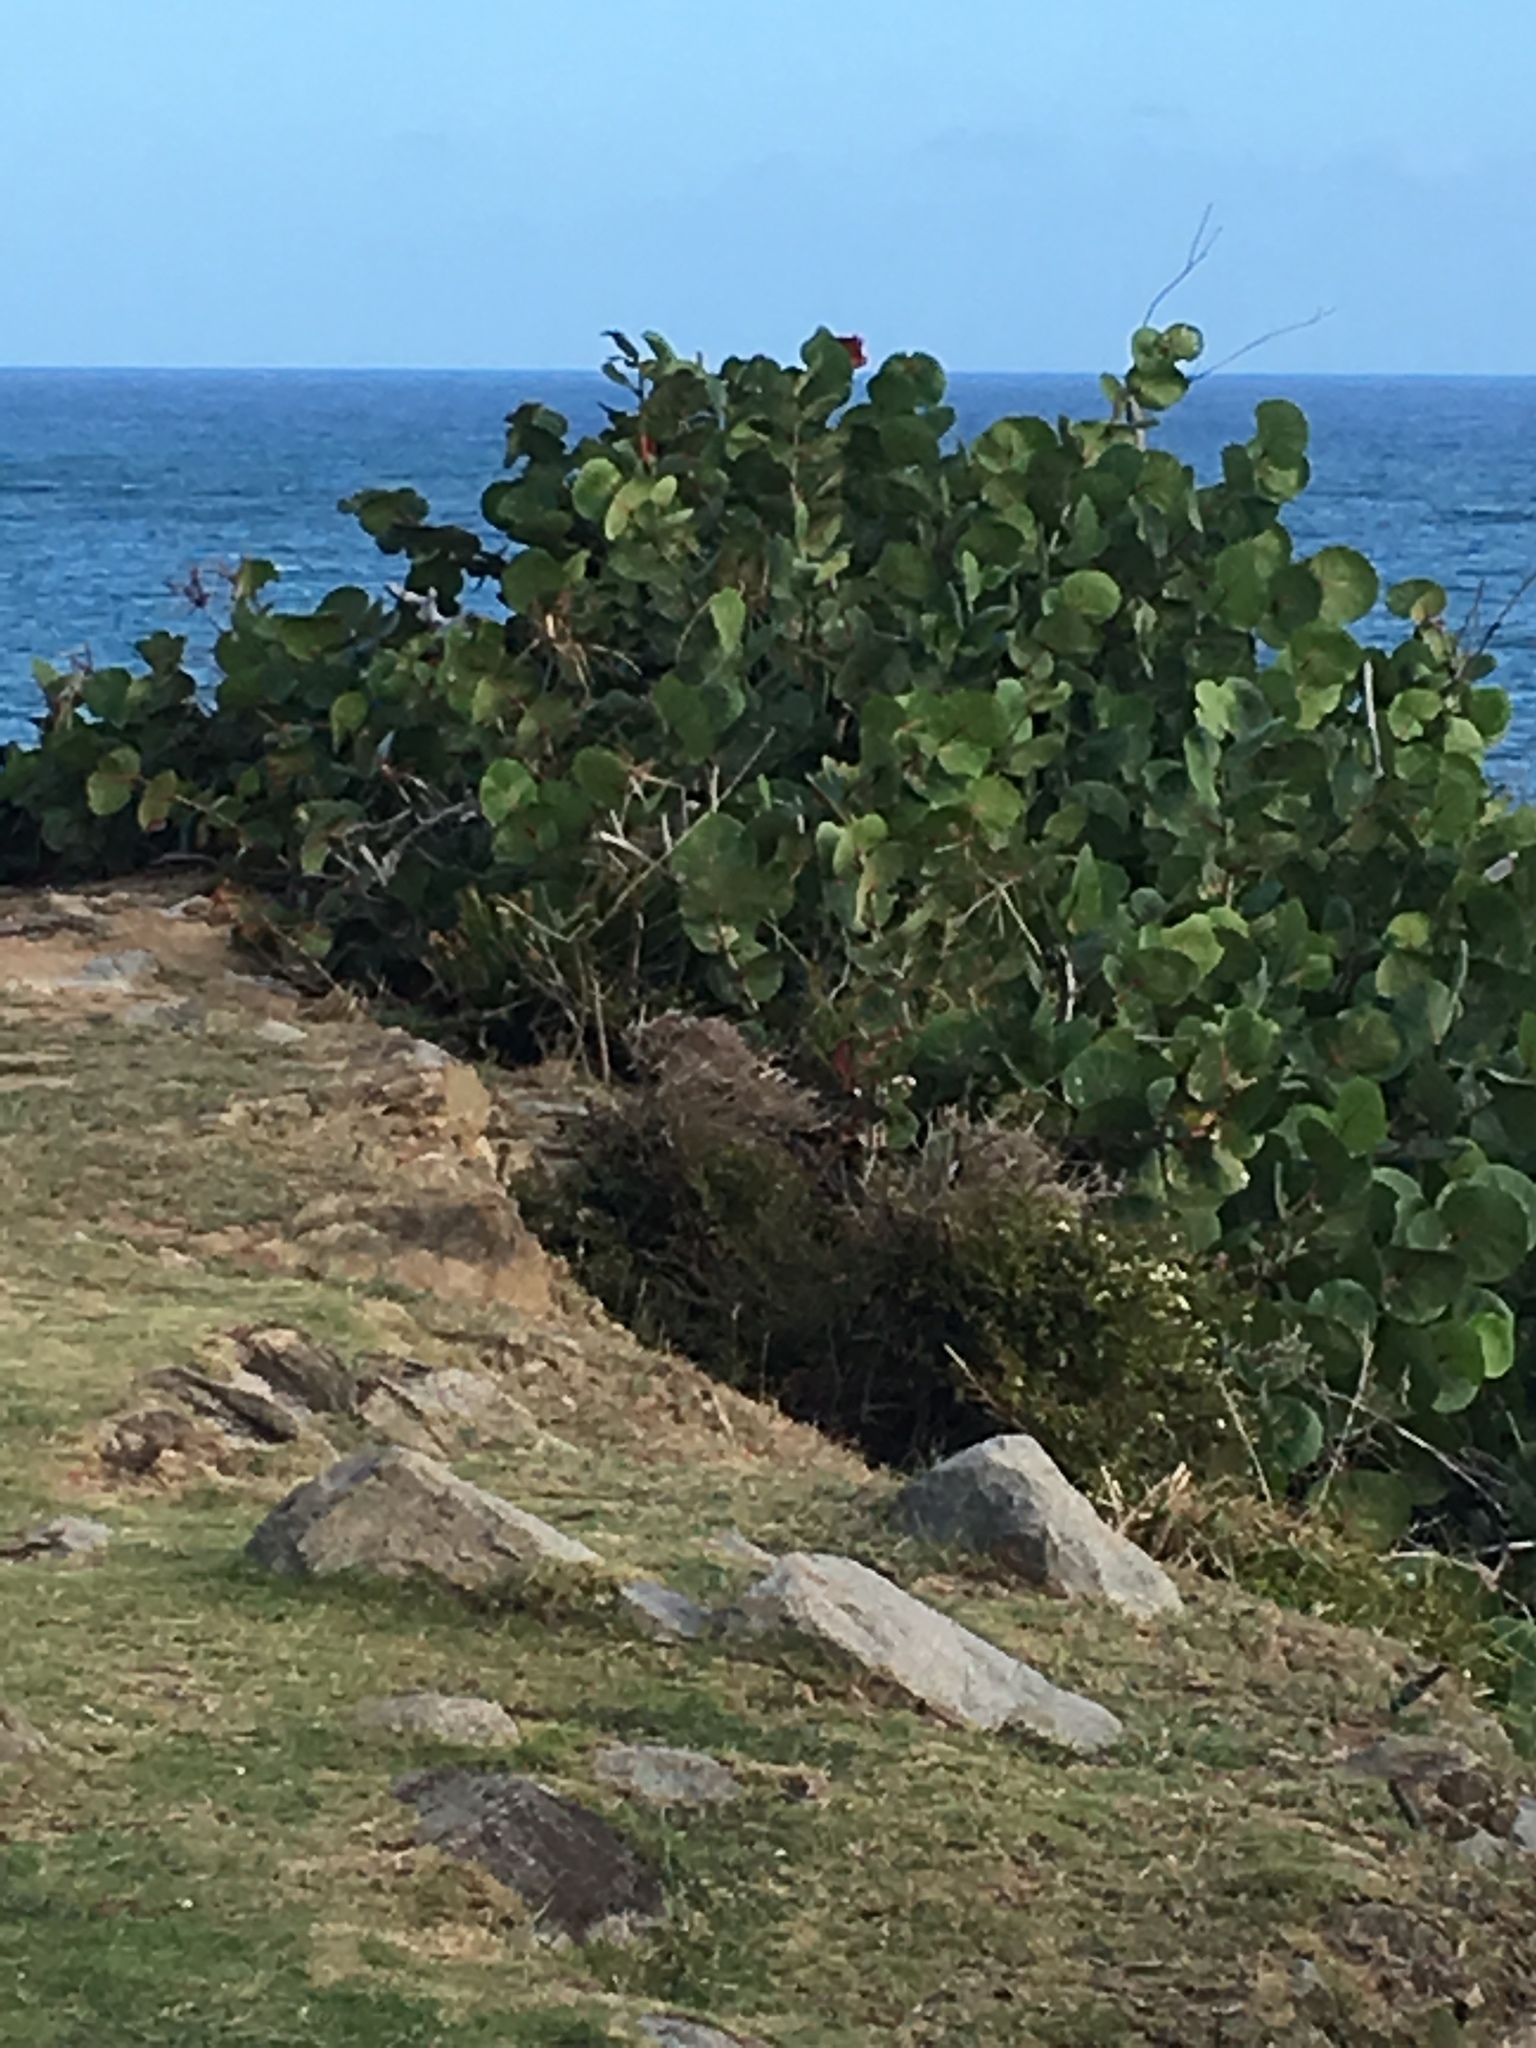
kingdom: Plantae
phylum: Tracheophyta
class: Magnoliopsida
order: Caryophyllales
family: Polygonaceae
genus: Coccoloba
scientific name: Coccoloba uvifera
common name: Seagrape
